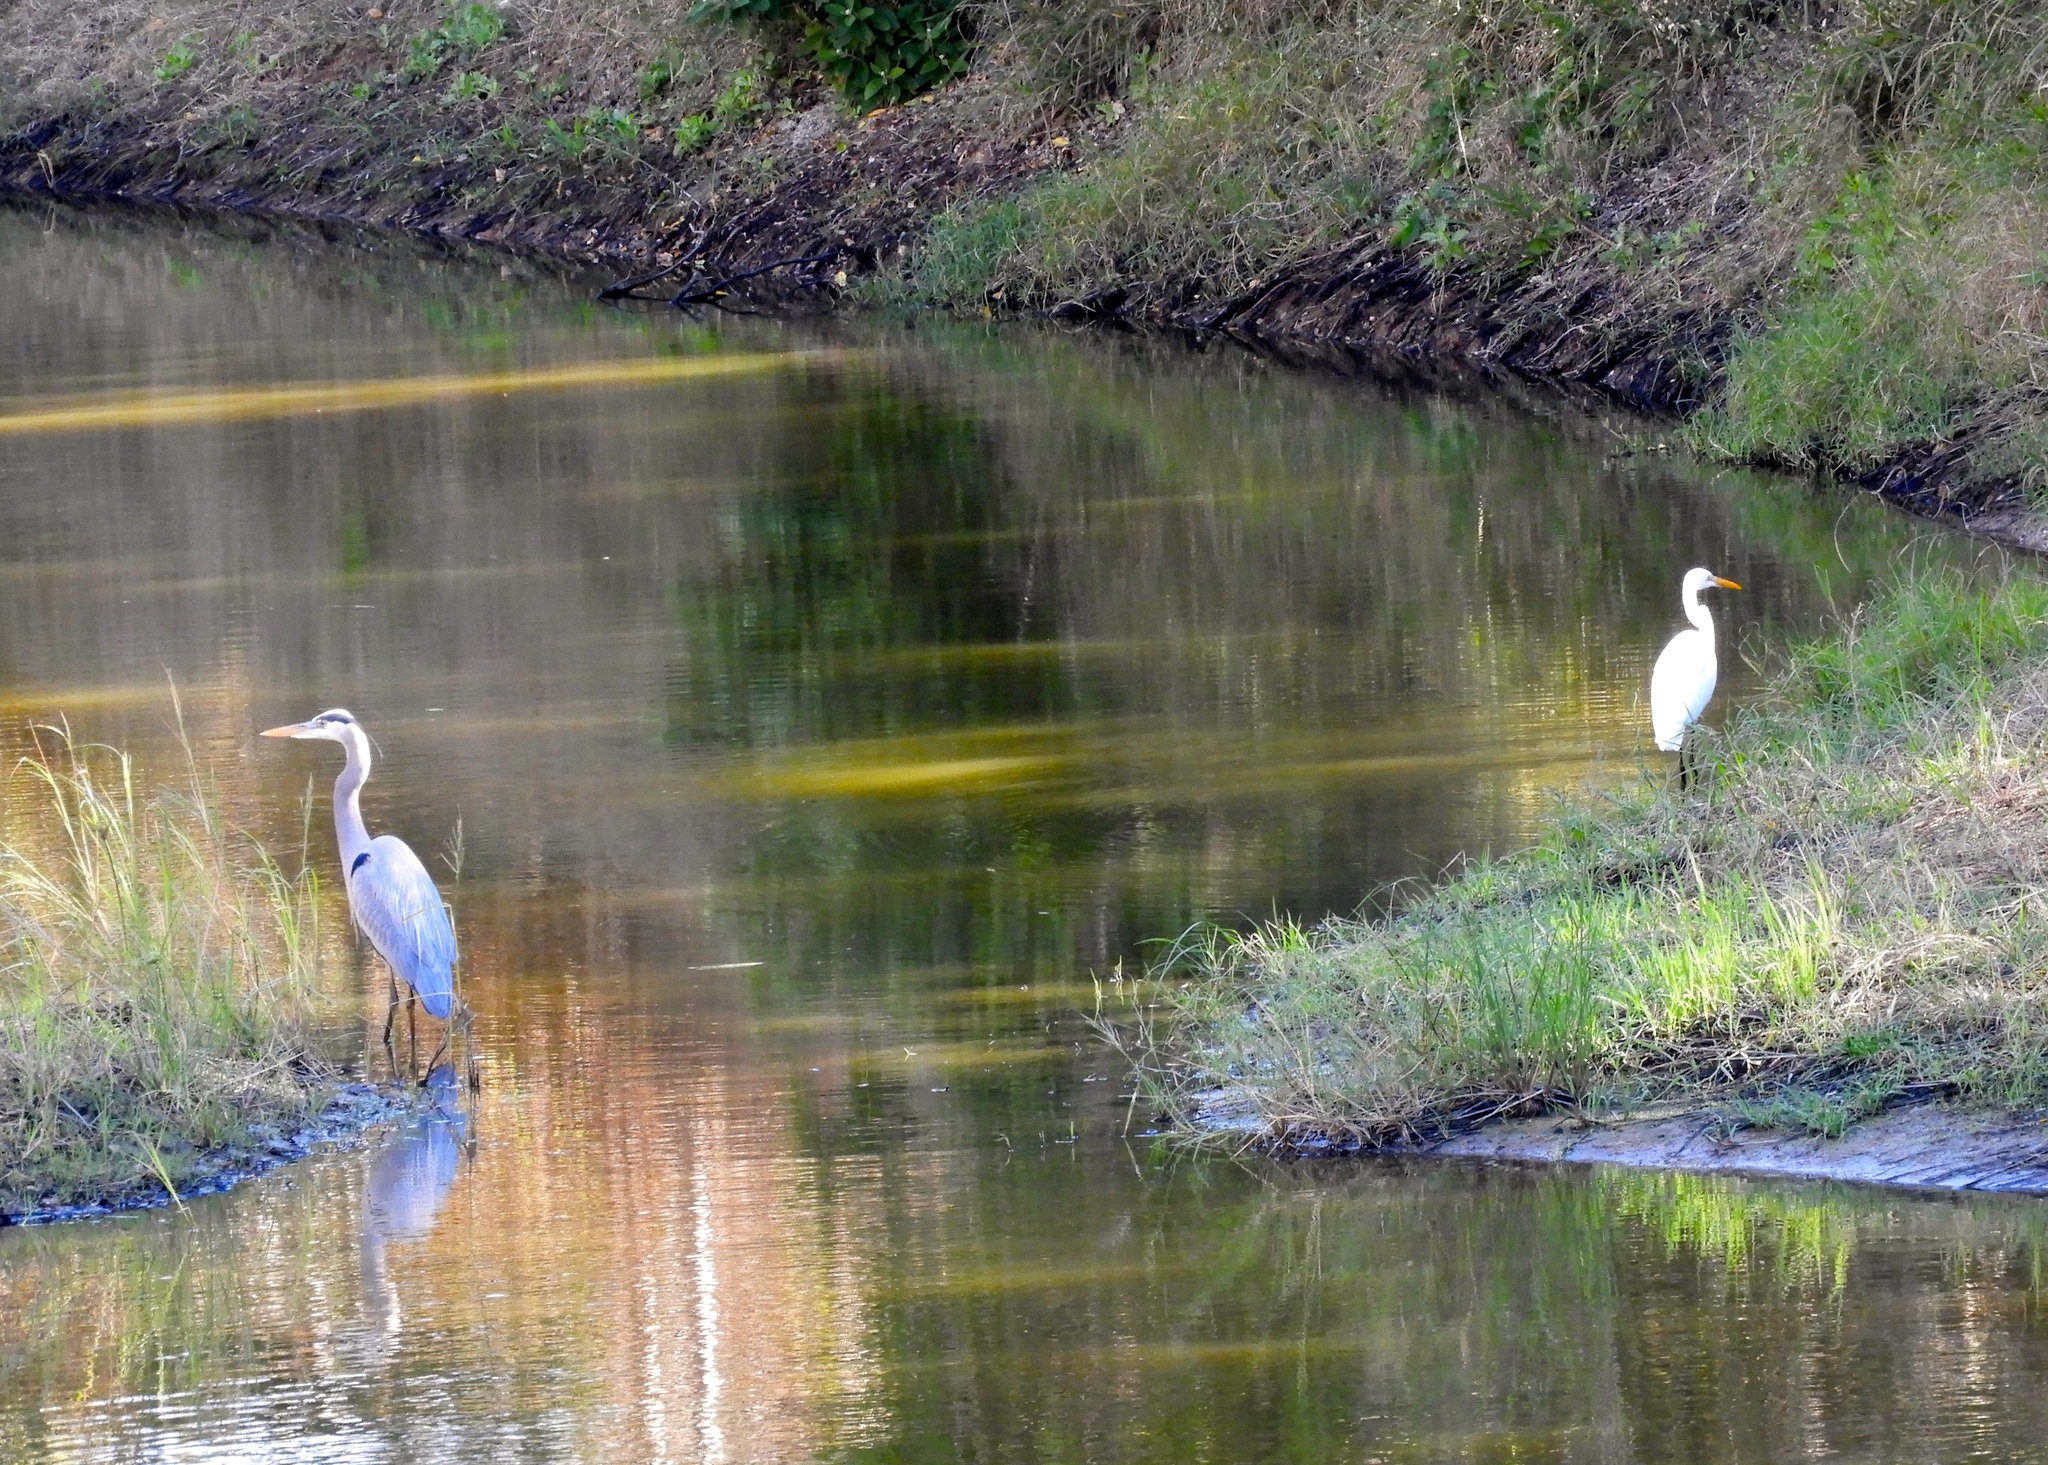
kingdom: Animalia
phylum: Chordata
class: Aves
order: Pelecaniformes
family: Ardeidae
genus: Ardea
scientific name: Ardea herodias
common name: Great blue heron
